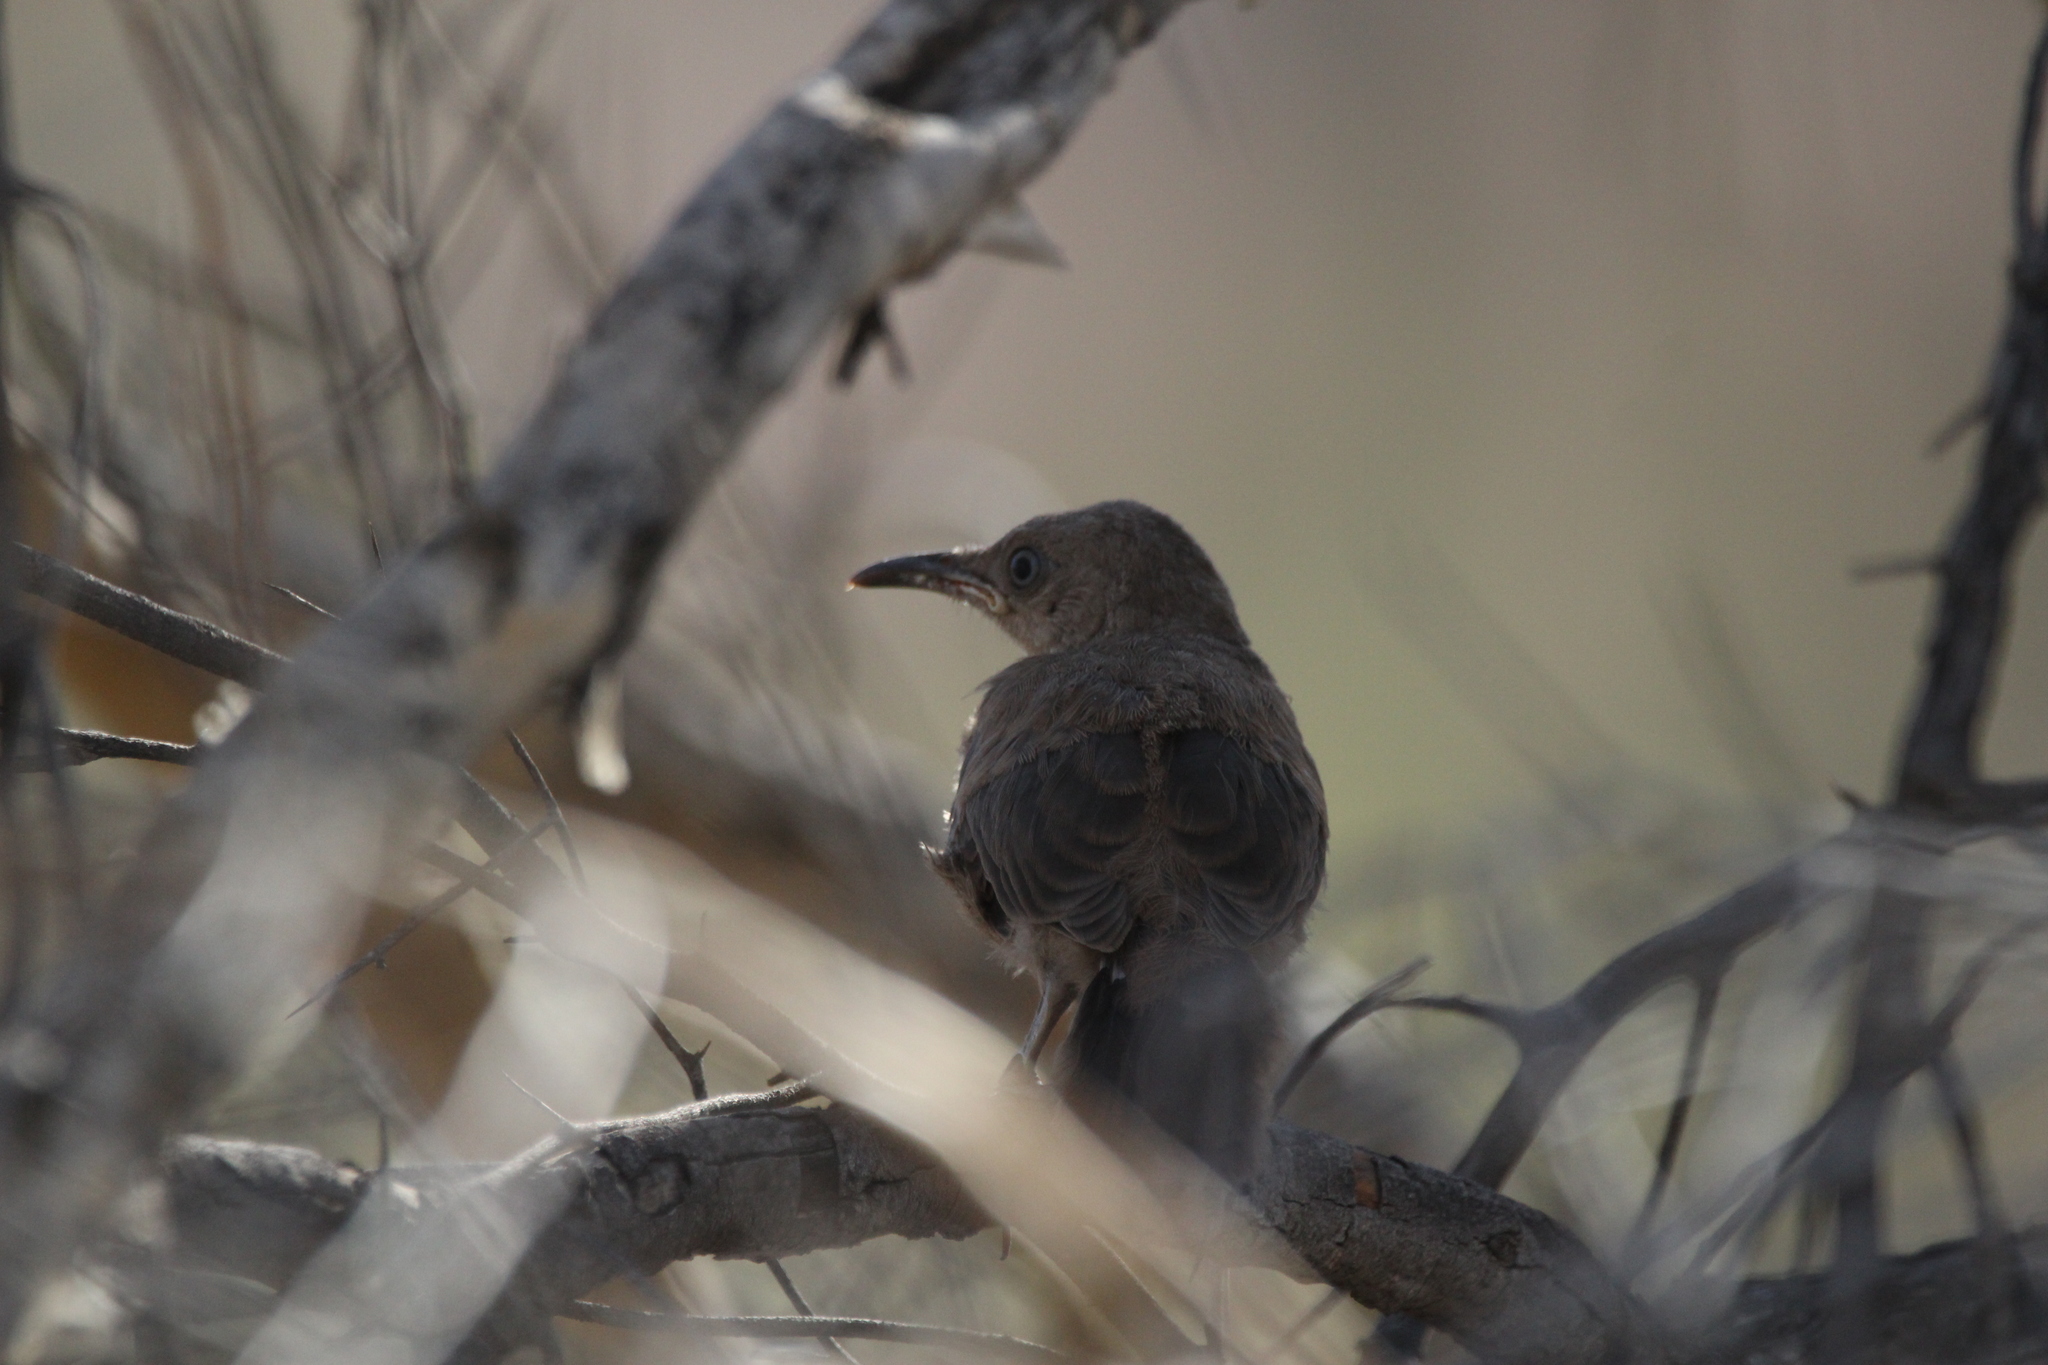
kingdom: Animalia
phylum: Chordata
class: Aves
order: Passeriformes
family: Mimidae
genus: Toxostoma
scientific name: Toxostoma curvirostre
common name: Curve-billed thrasher
